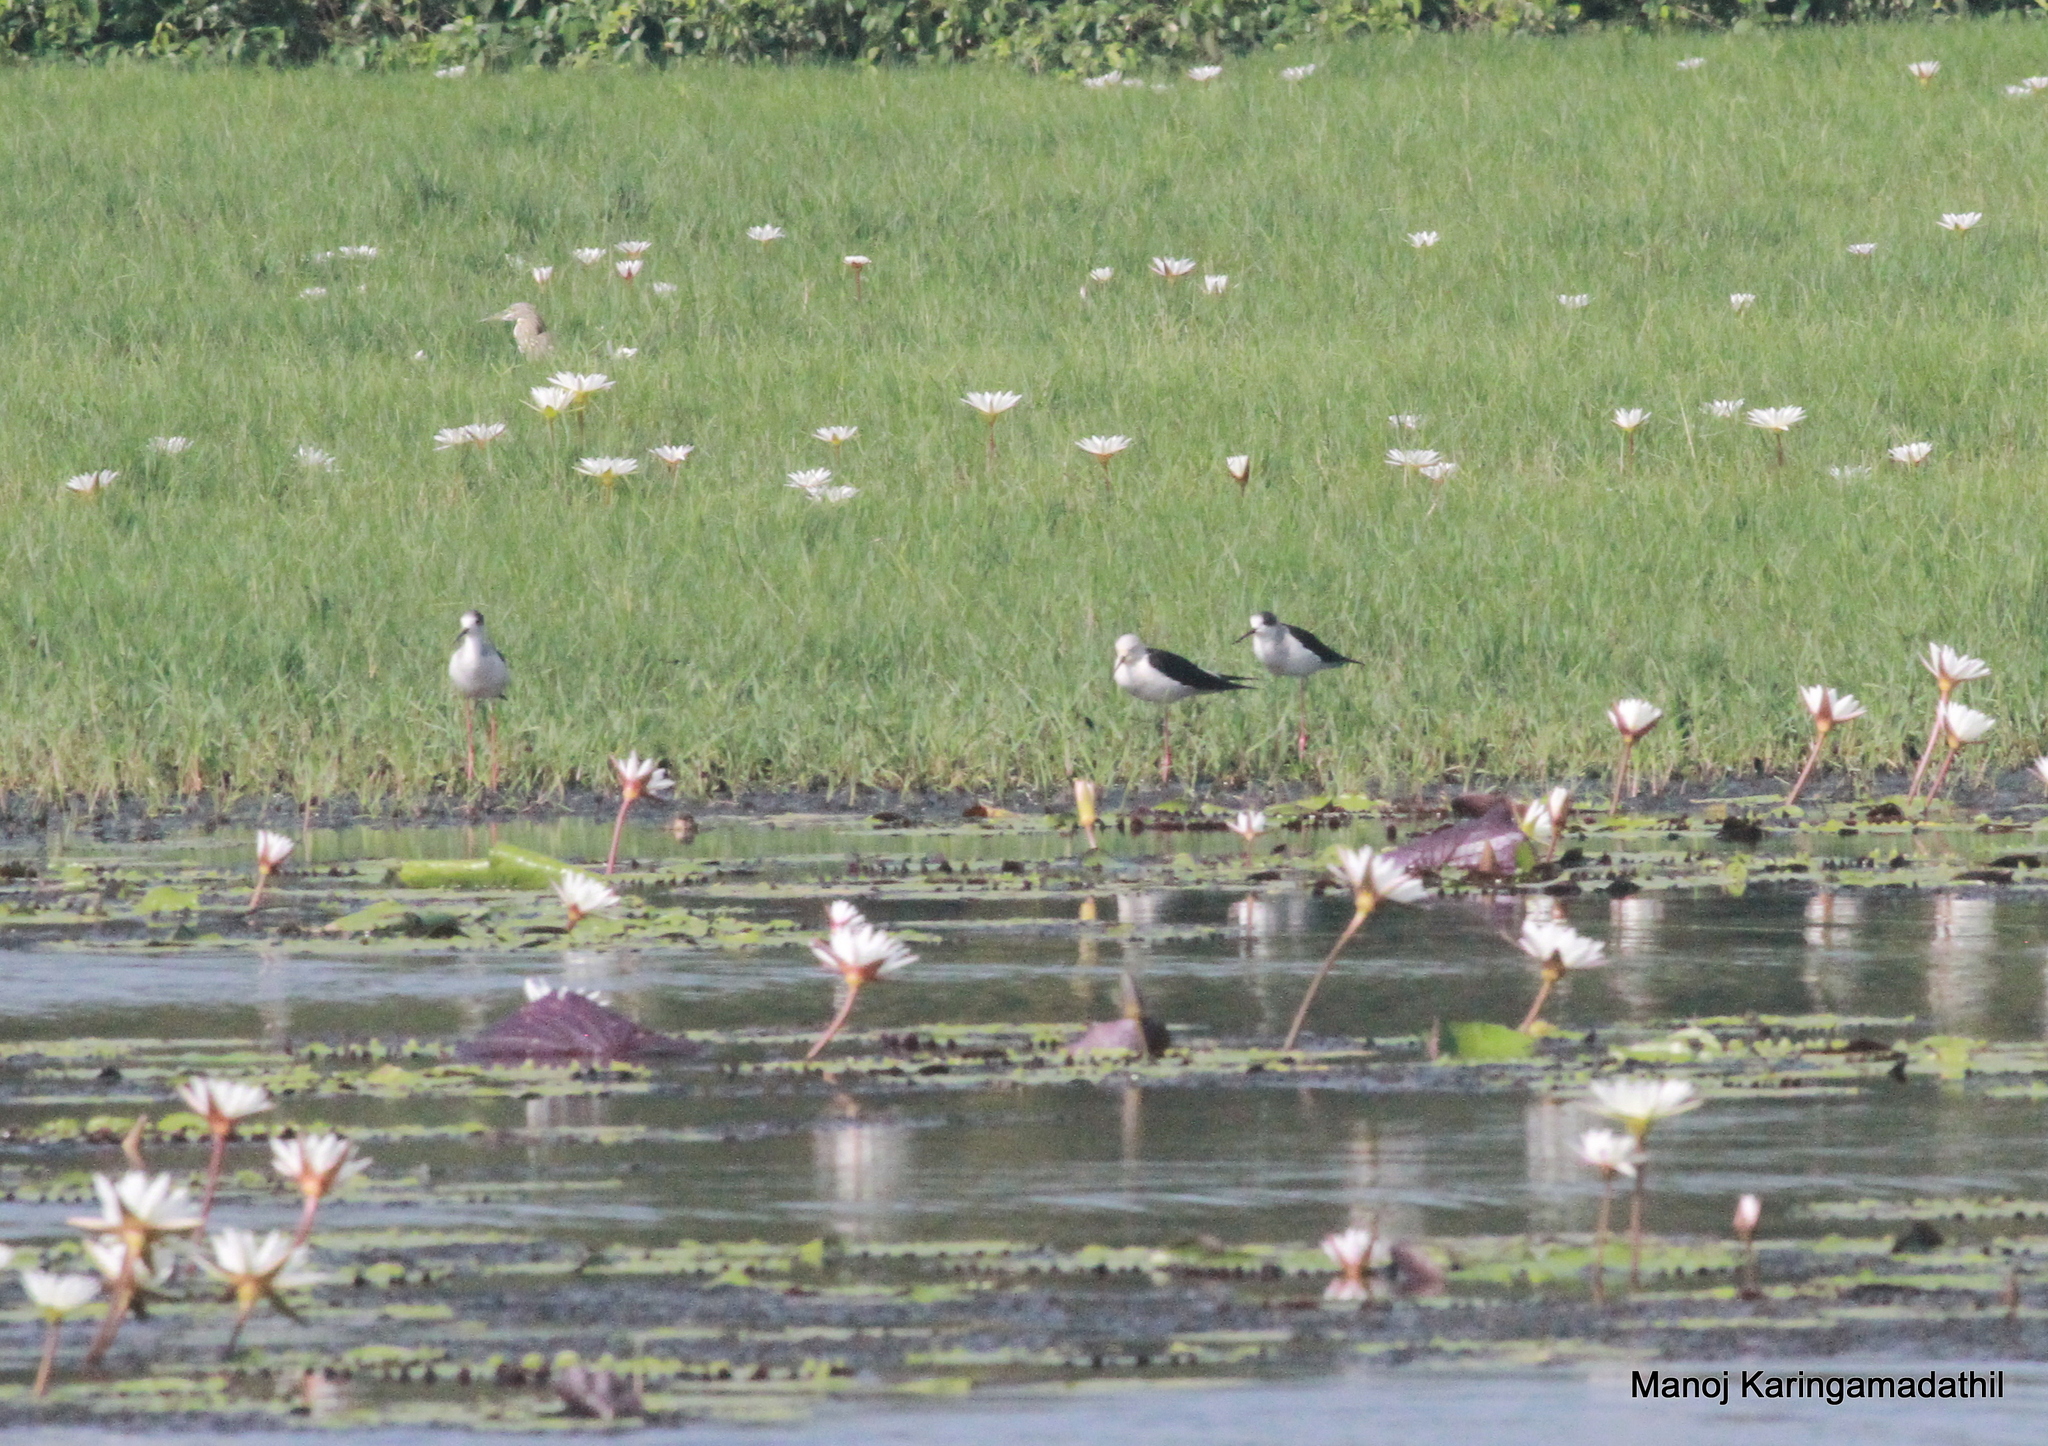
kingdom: Animalia
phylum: Chordata
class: Aves
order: Charadriiformes
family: Recurvirostridae
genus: Himantopus
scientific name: Himantopus himantopus
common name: Black-winged stilt
